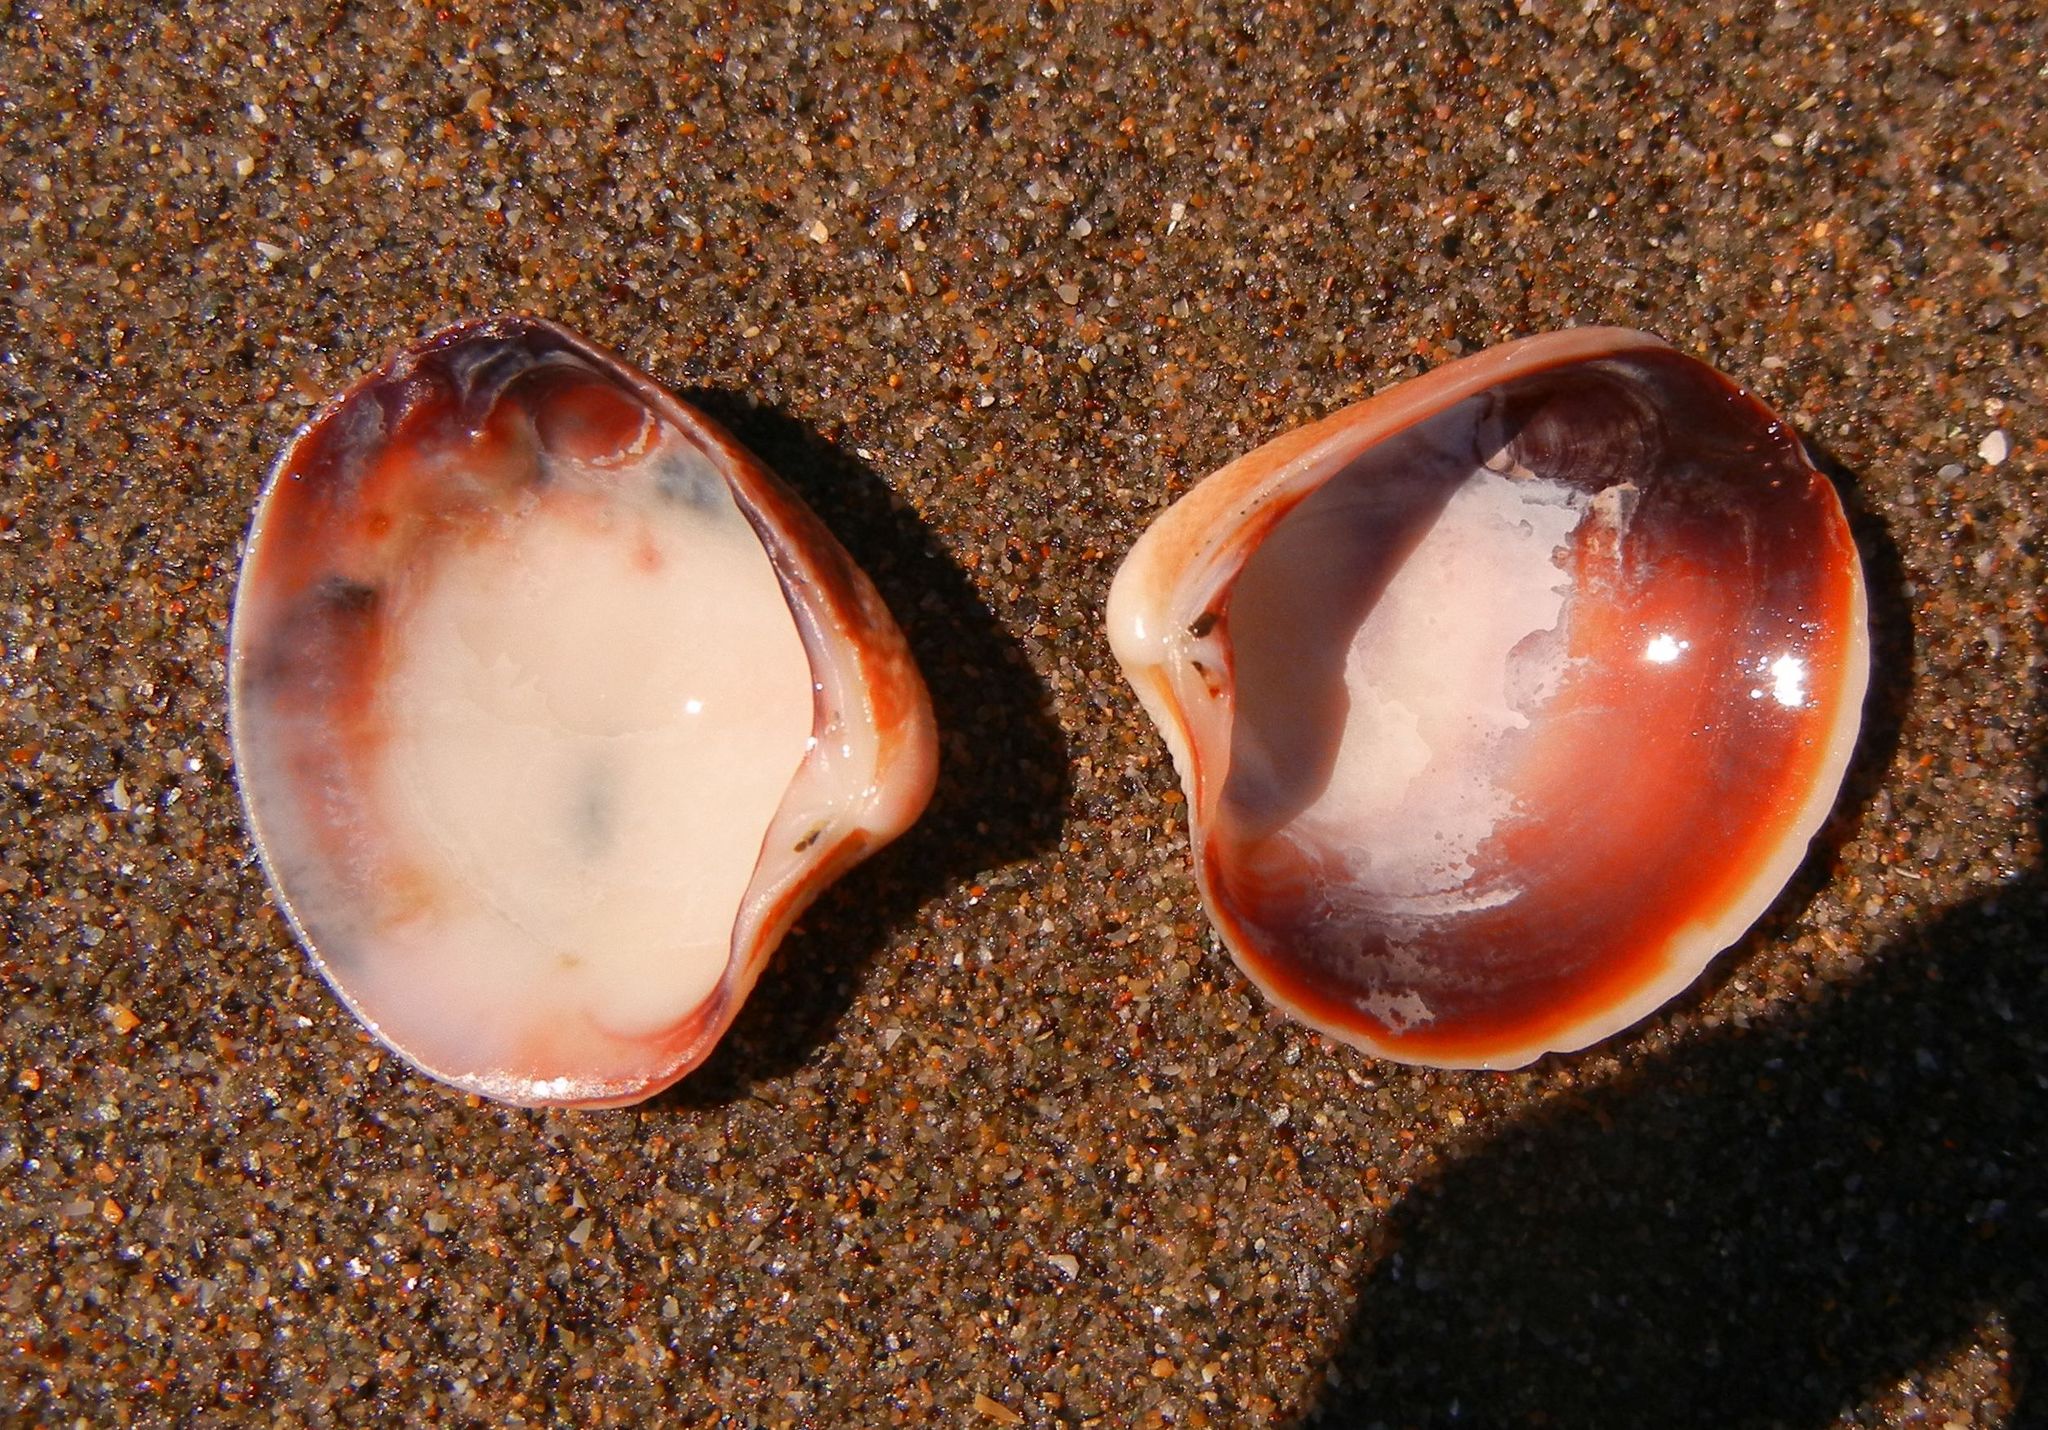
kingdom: Animalia
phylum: Mollusca
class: Bivalvia
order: Venerida
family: Veneridae
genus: Chamelea
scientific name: Chamelea gallina
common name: Chicken venus
